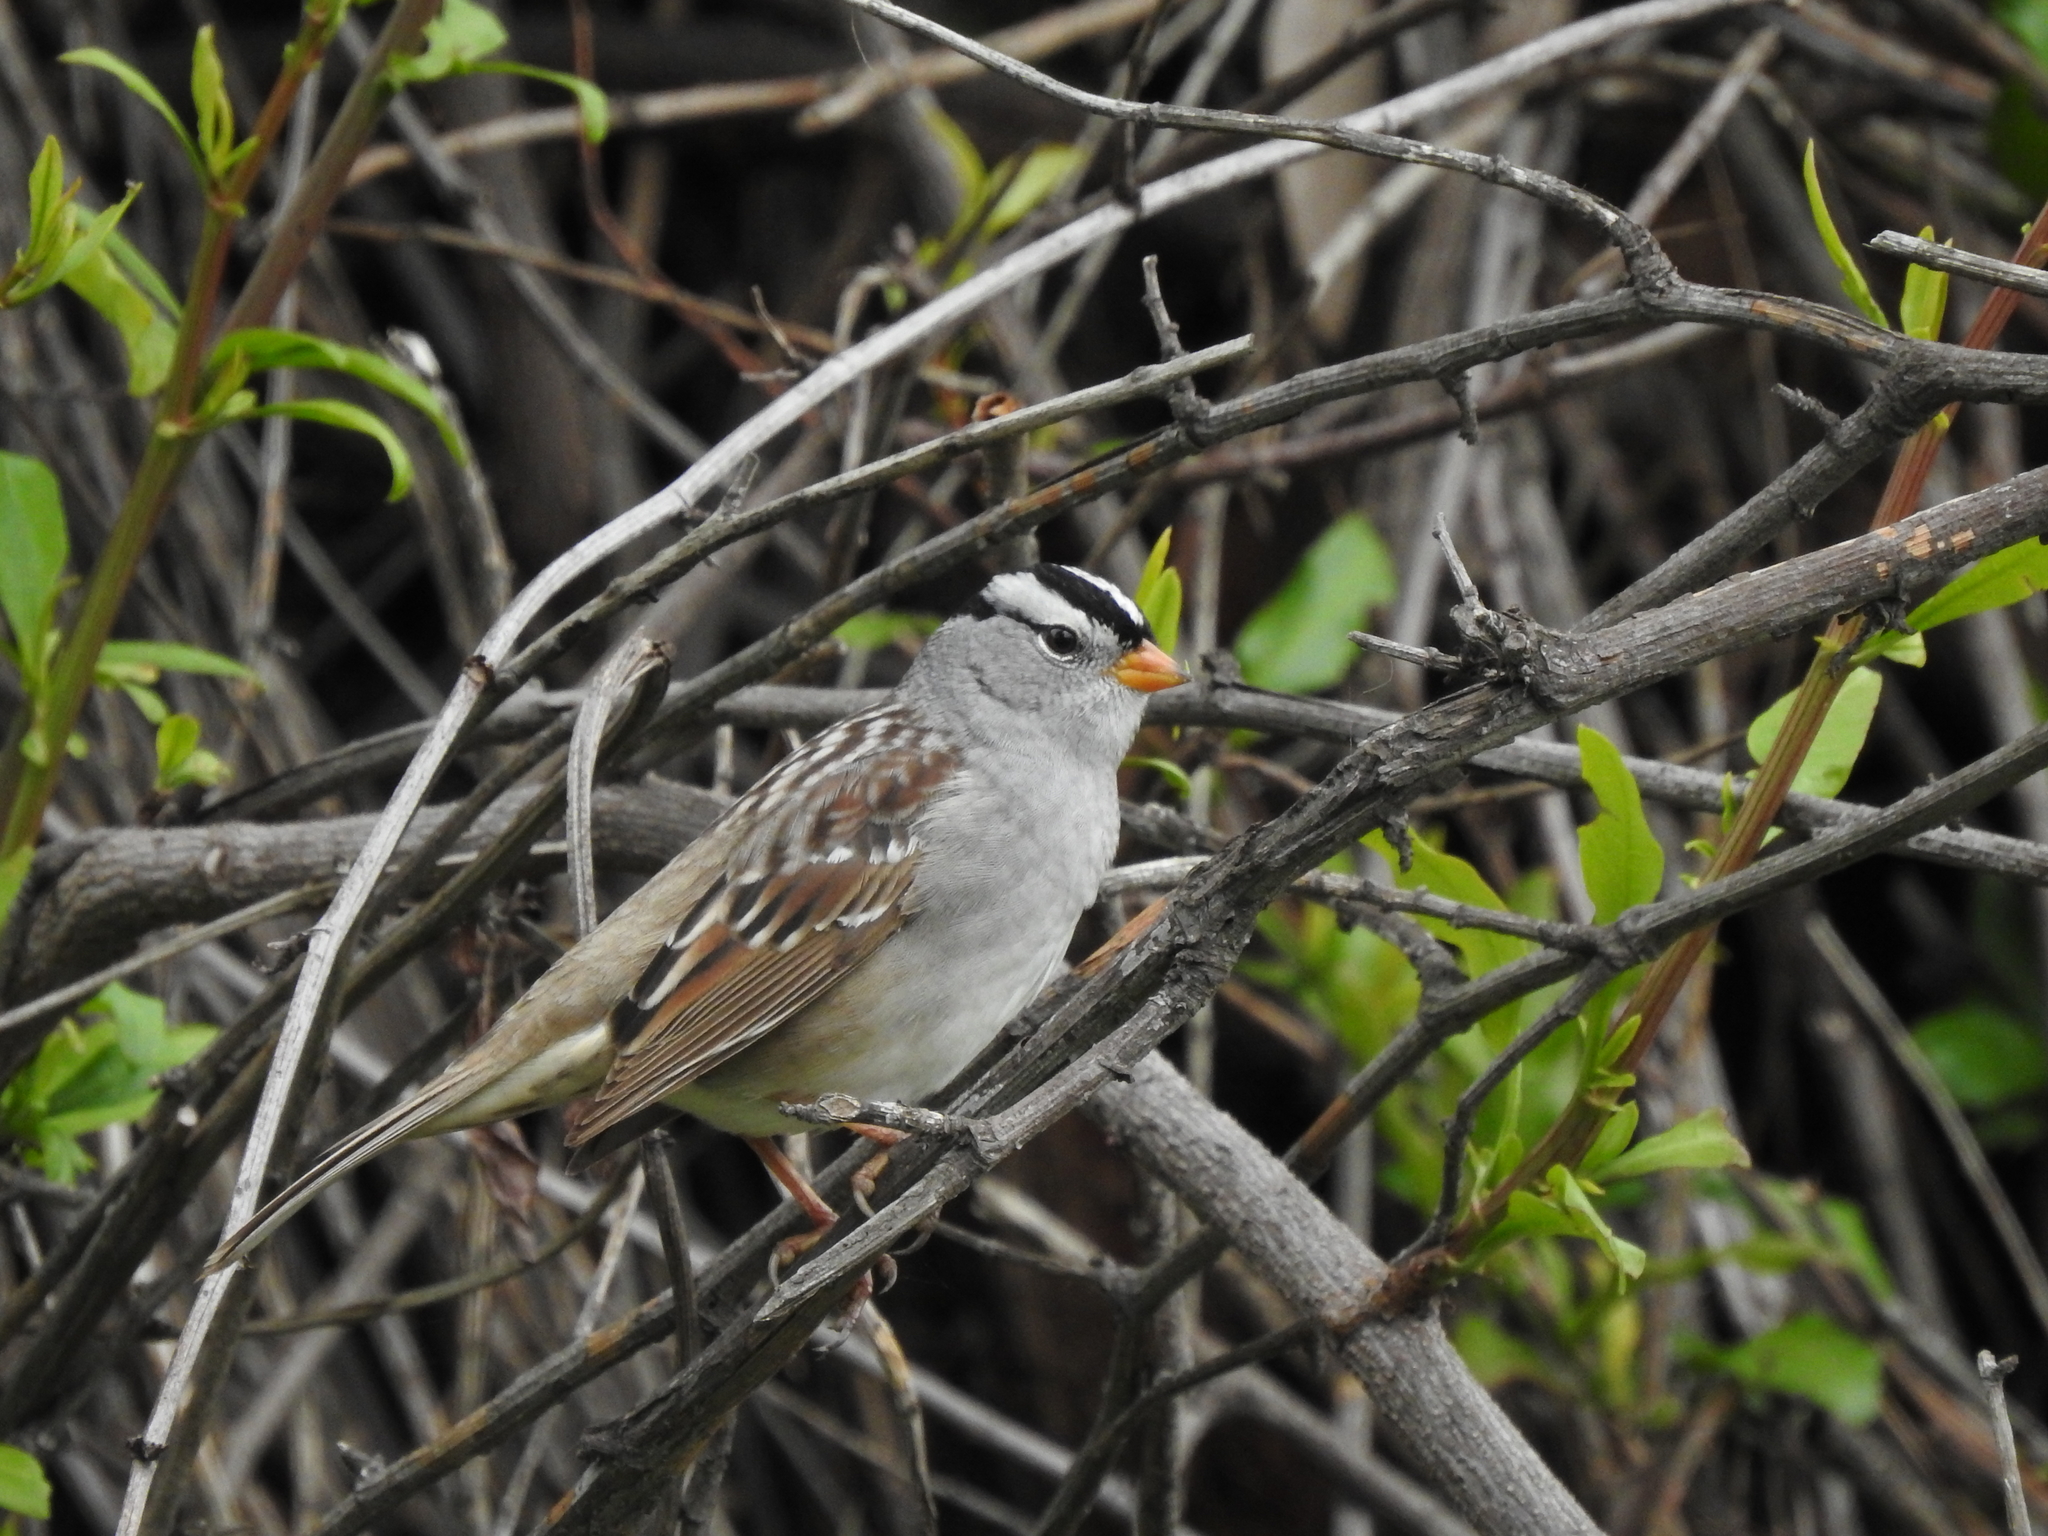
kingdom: Animalia
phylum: Chordata
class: Aves
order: Passeriformes
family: Passerellidae
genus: Zonotrichia
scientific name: Zonotrichia leucophrys
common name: White-crowned sparrow
